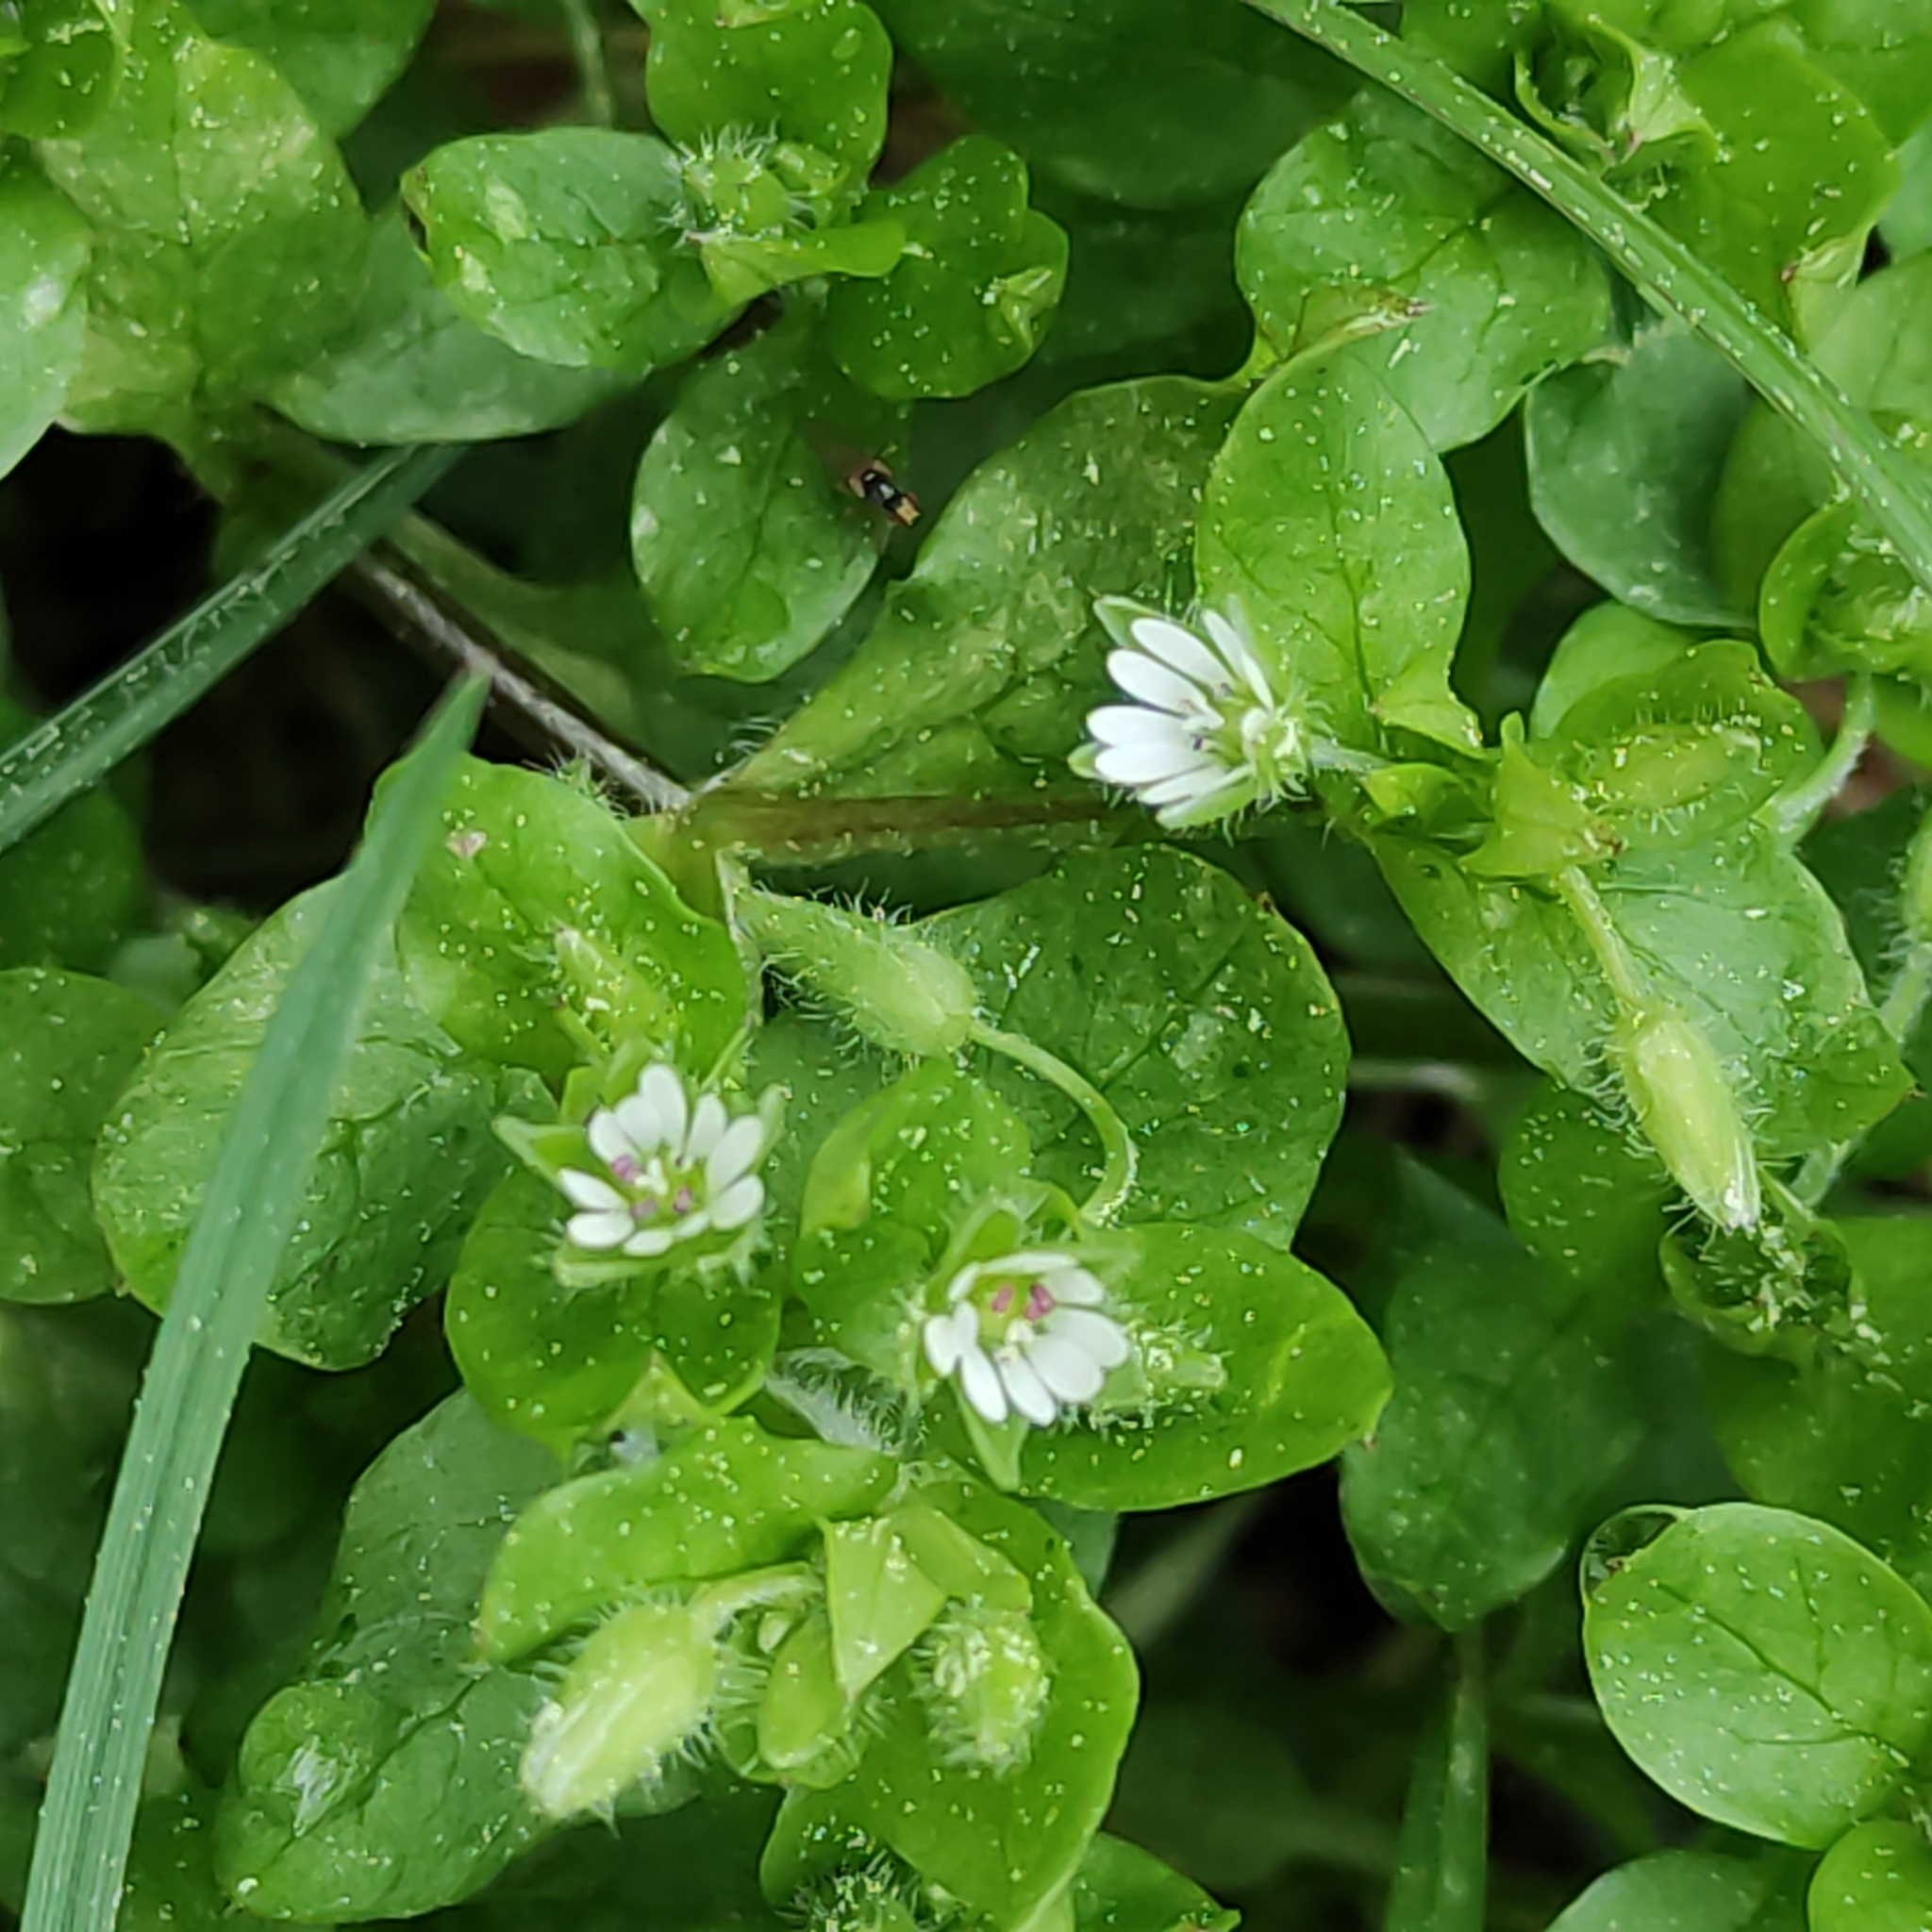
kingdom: Plantae
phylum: Tracheophyta
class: Magnoliopsida
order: Caryophyllales
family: Caryophyllaceae
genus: Stellaria
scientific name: Stellaria media
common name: Common chickweed
